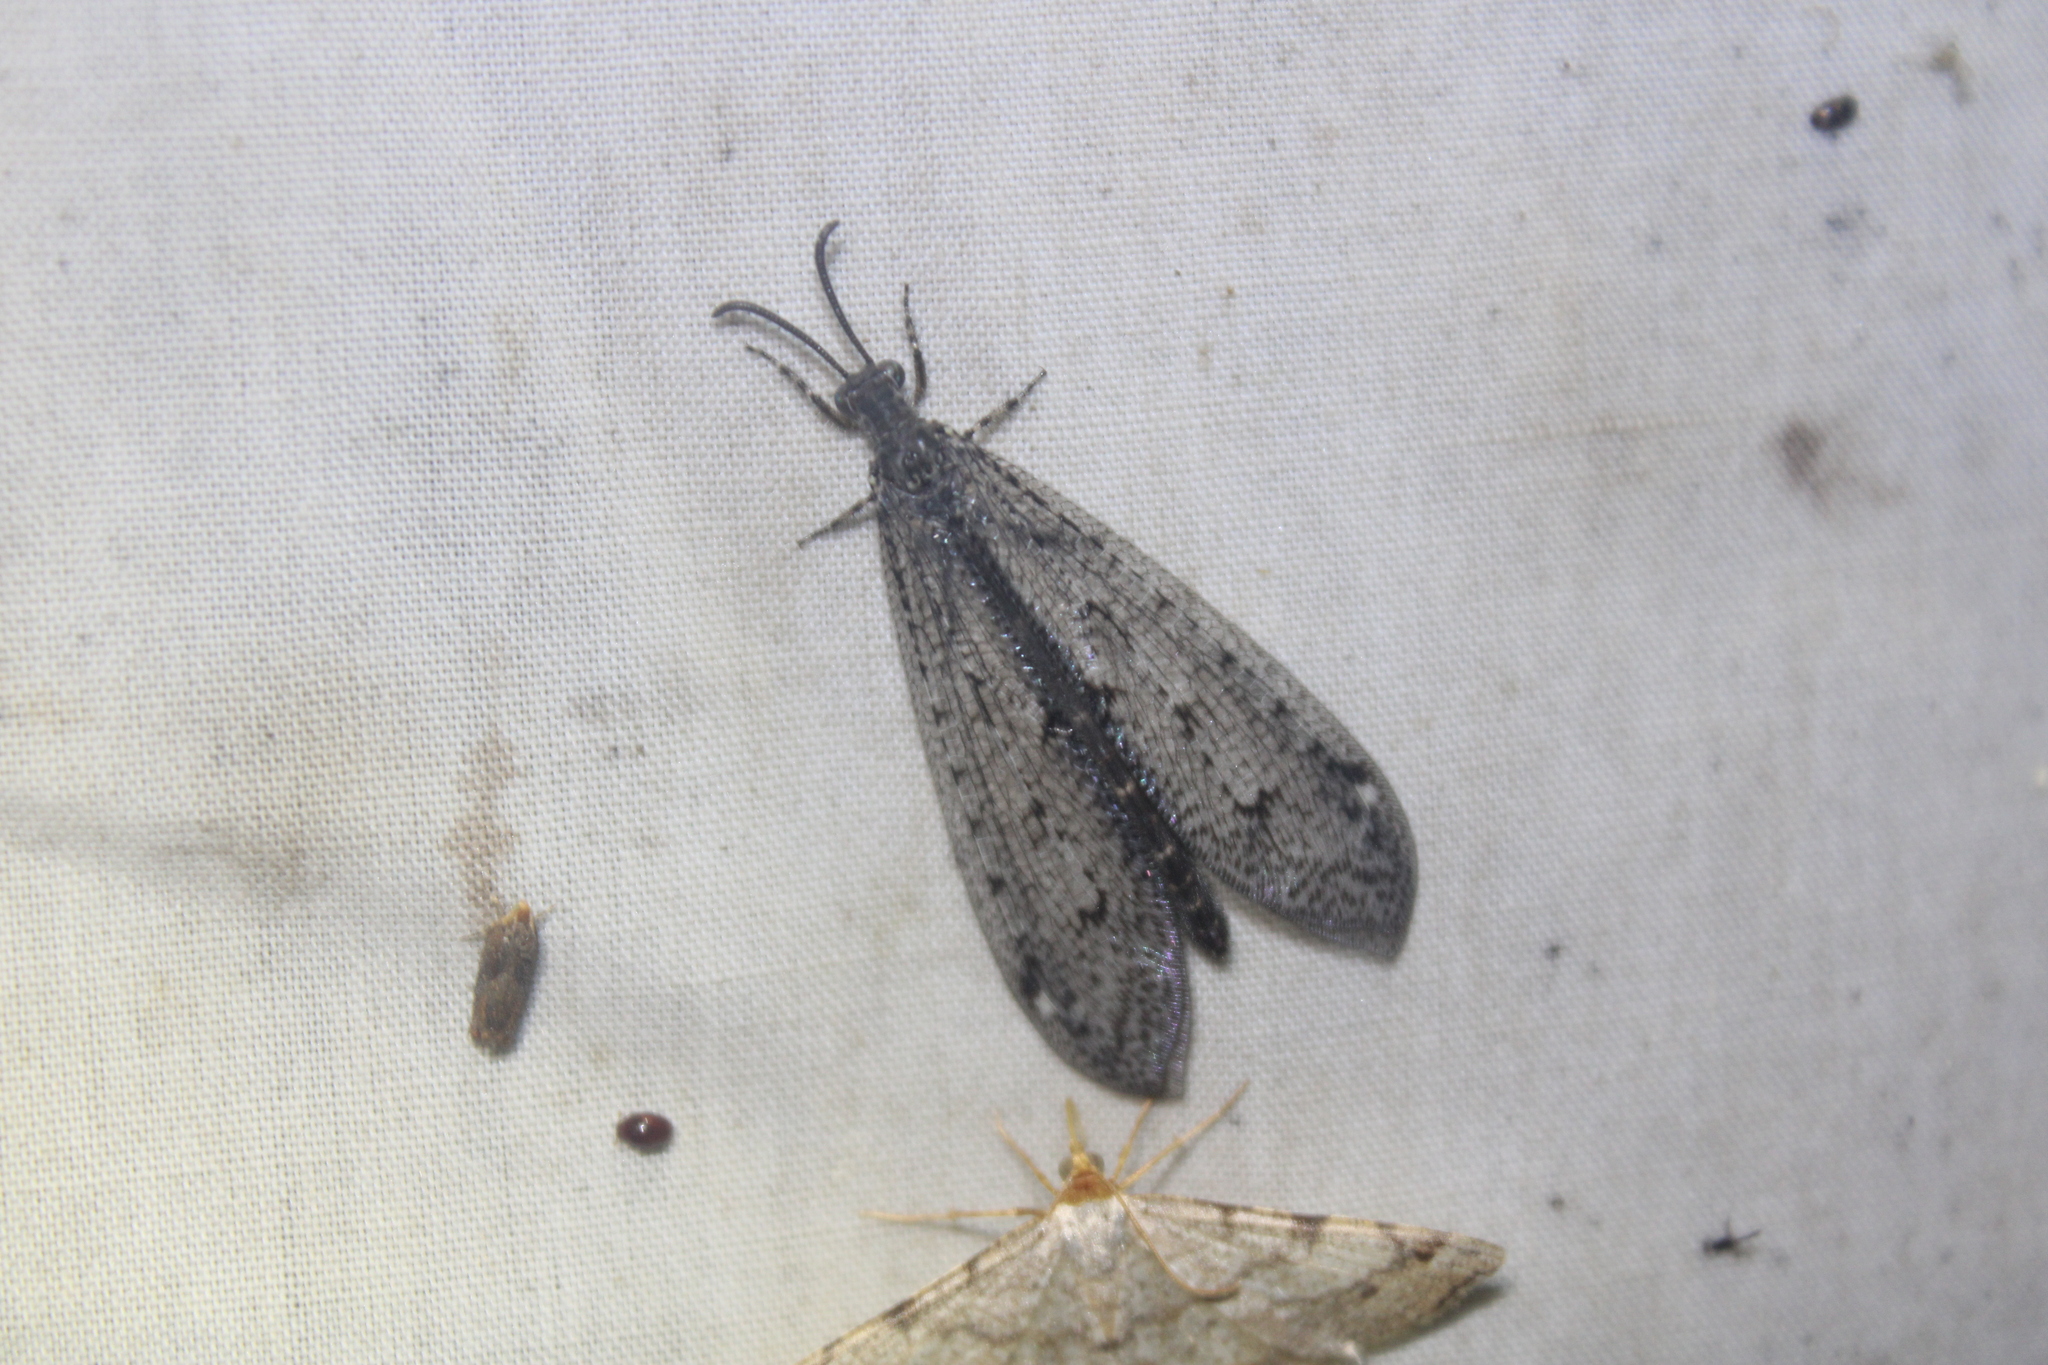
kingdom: Animalia
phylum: Arthropoda
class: Insecta
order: Neuroptera
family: Myrmeleontidae
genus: Brachynemurus
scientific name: Brachynemurus nebulosus
